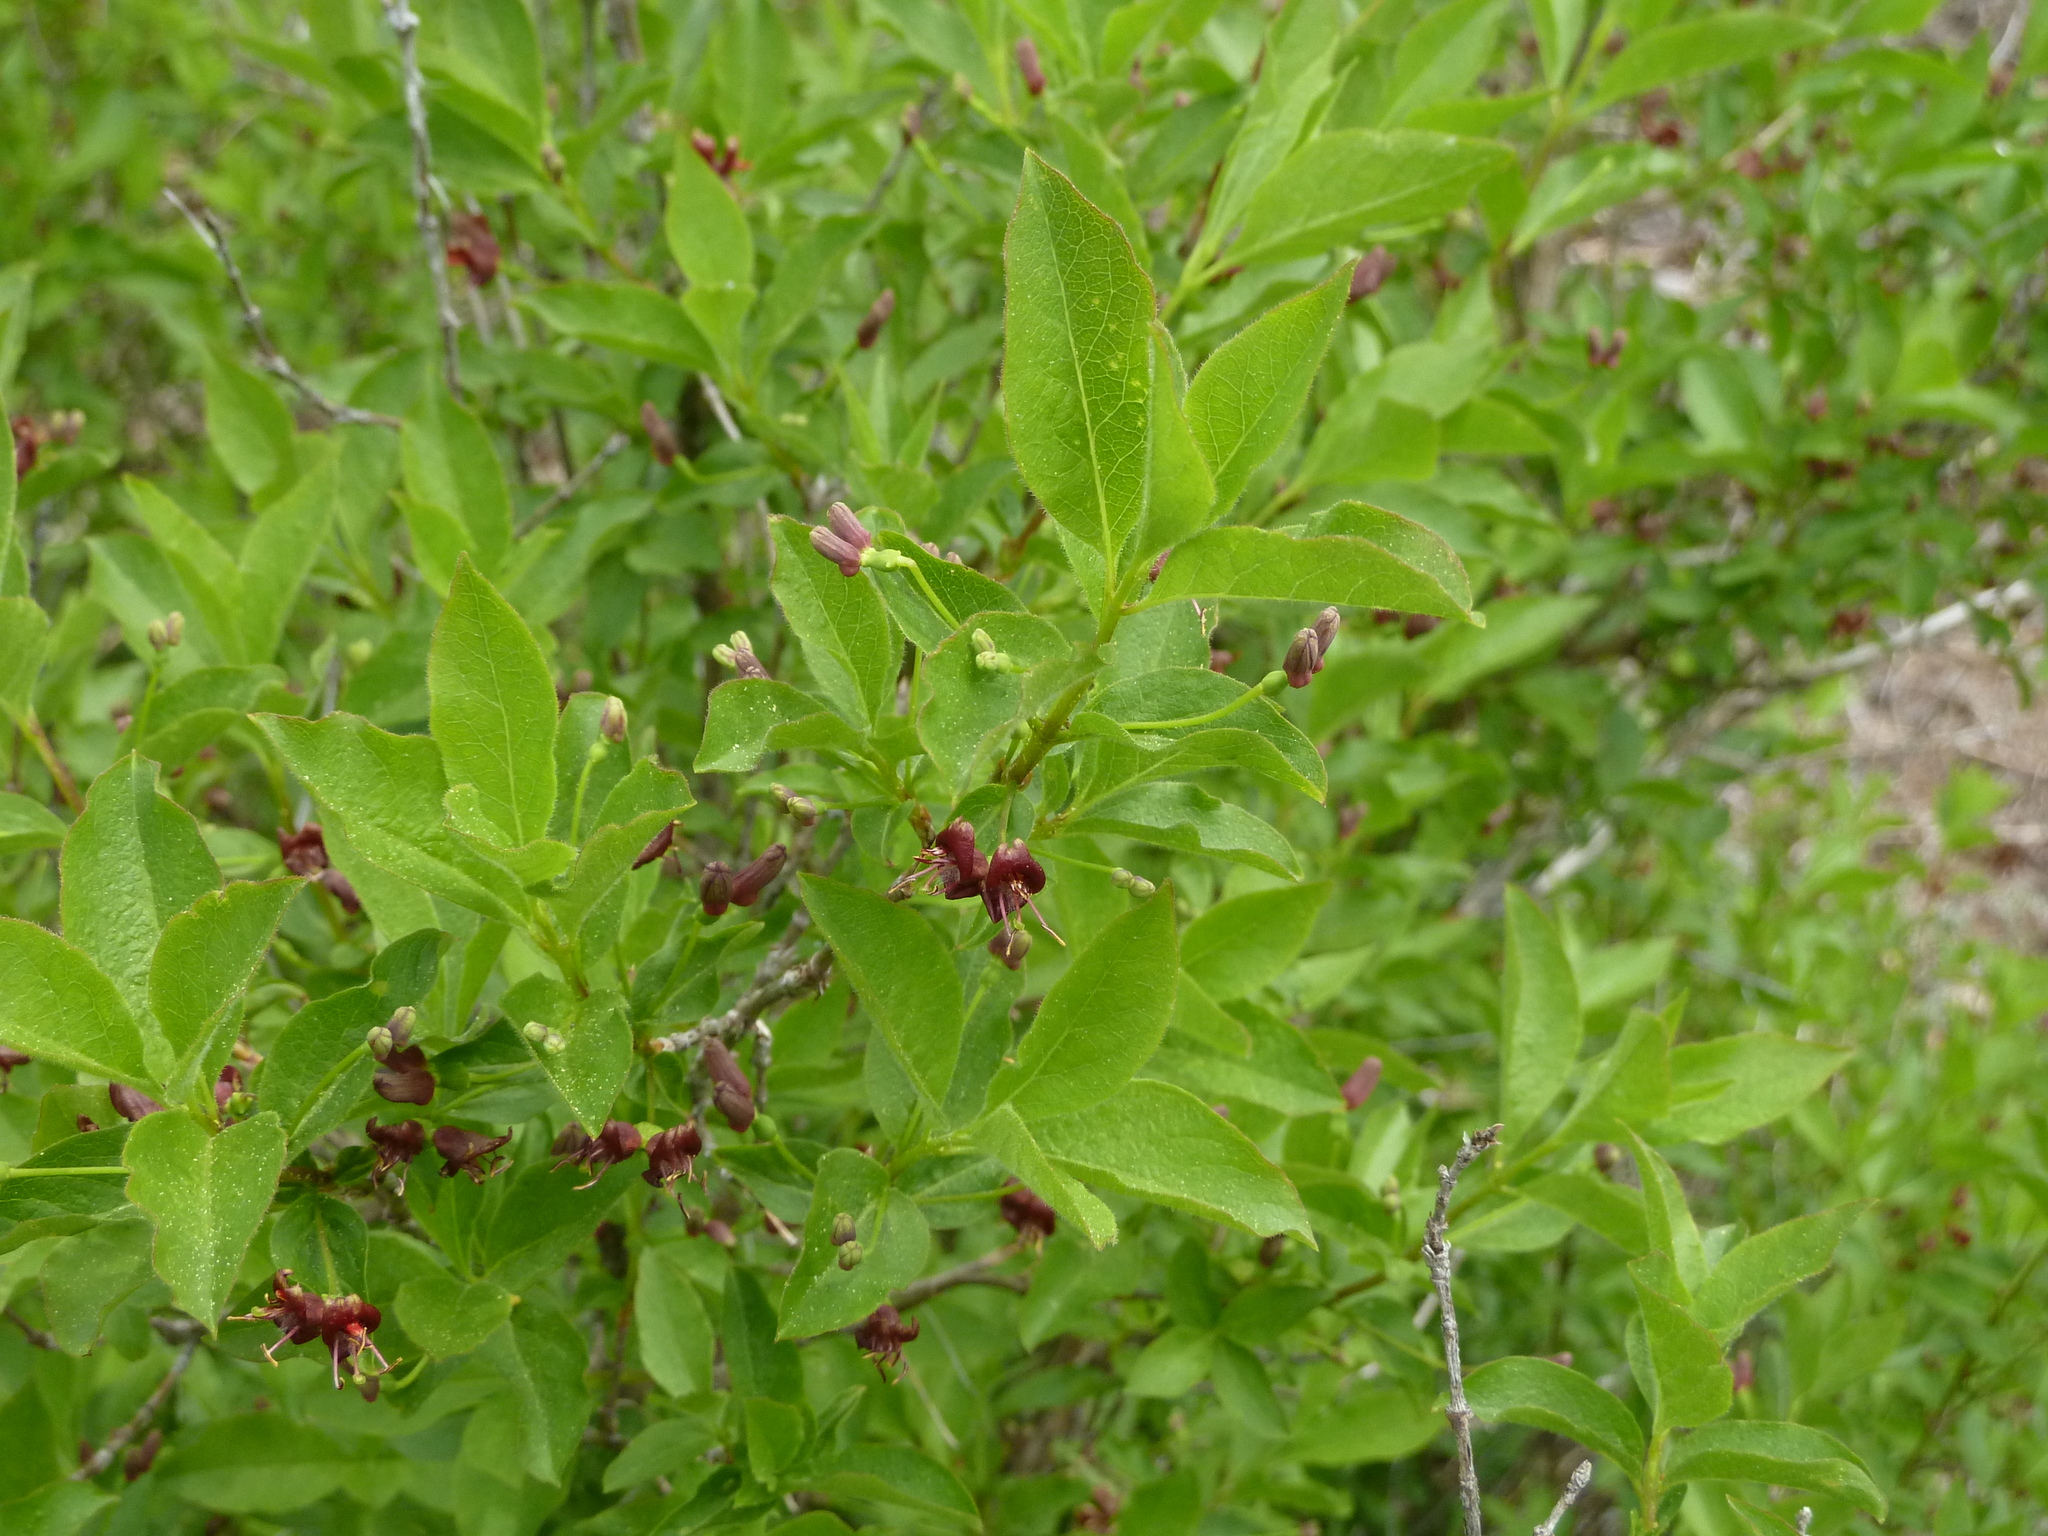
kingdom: Plantae
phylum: Tracheophyta
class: Magnoliopsida
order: Dipsacales
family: Caprifoliaceae
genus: Lonicera
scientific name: Lonicera conjugialis
